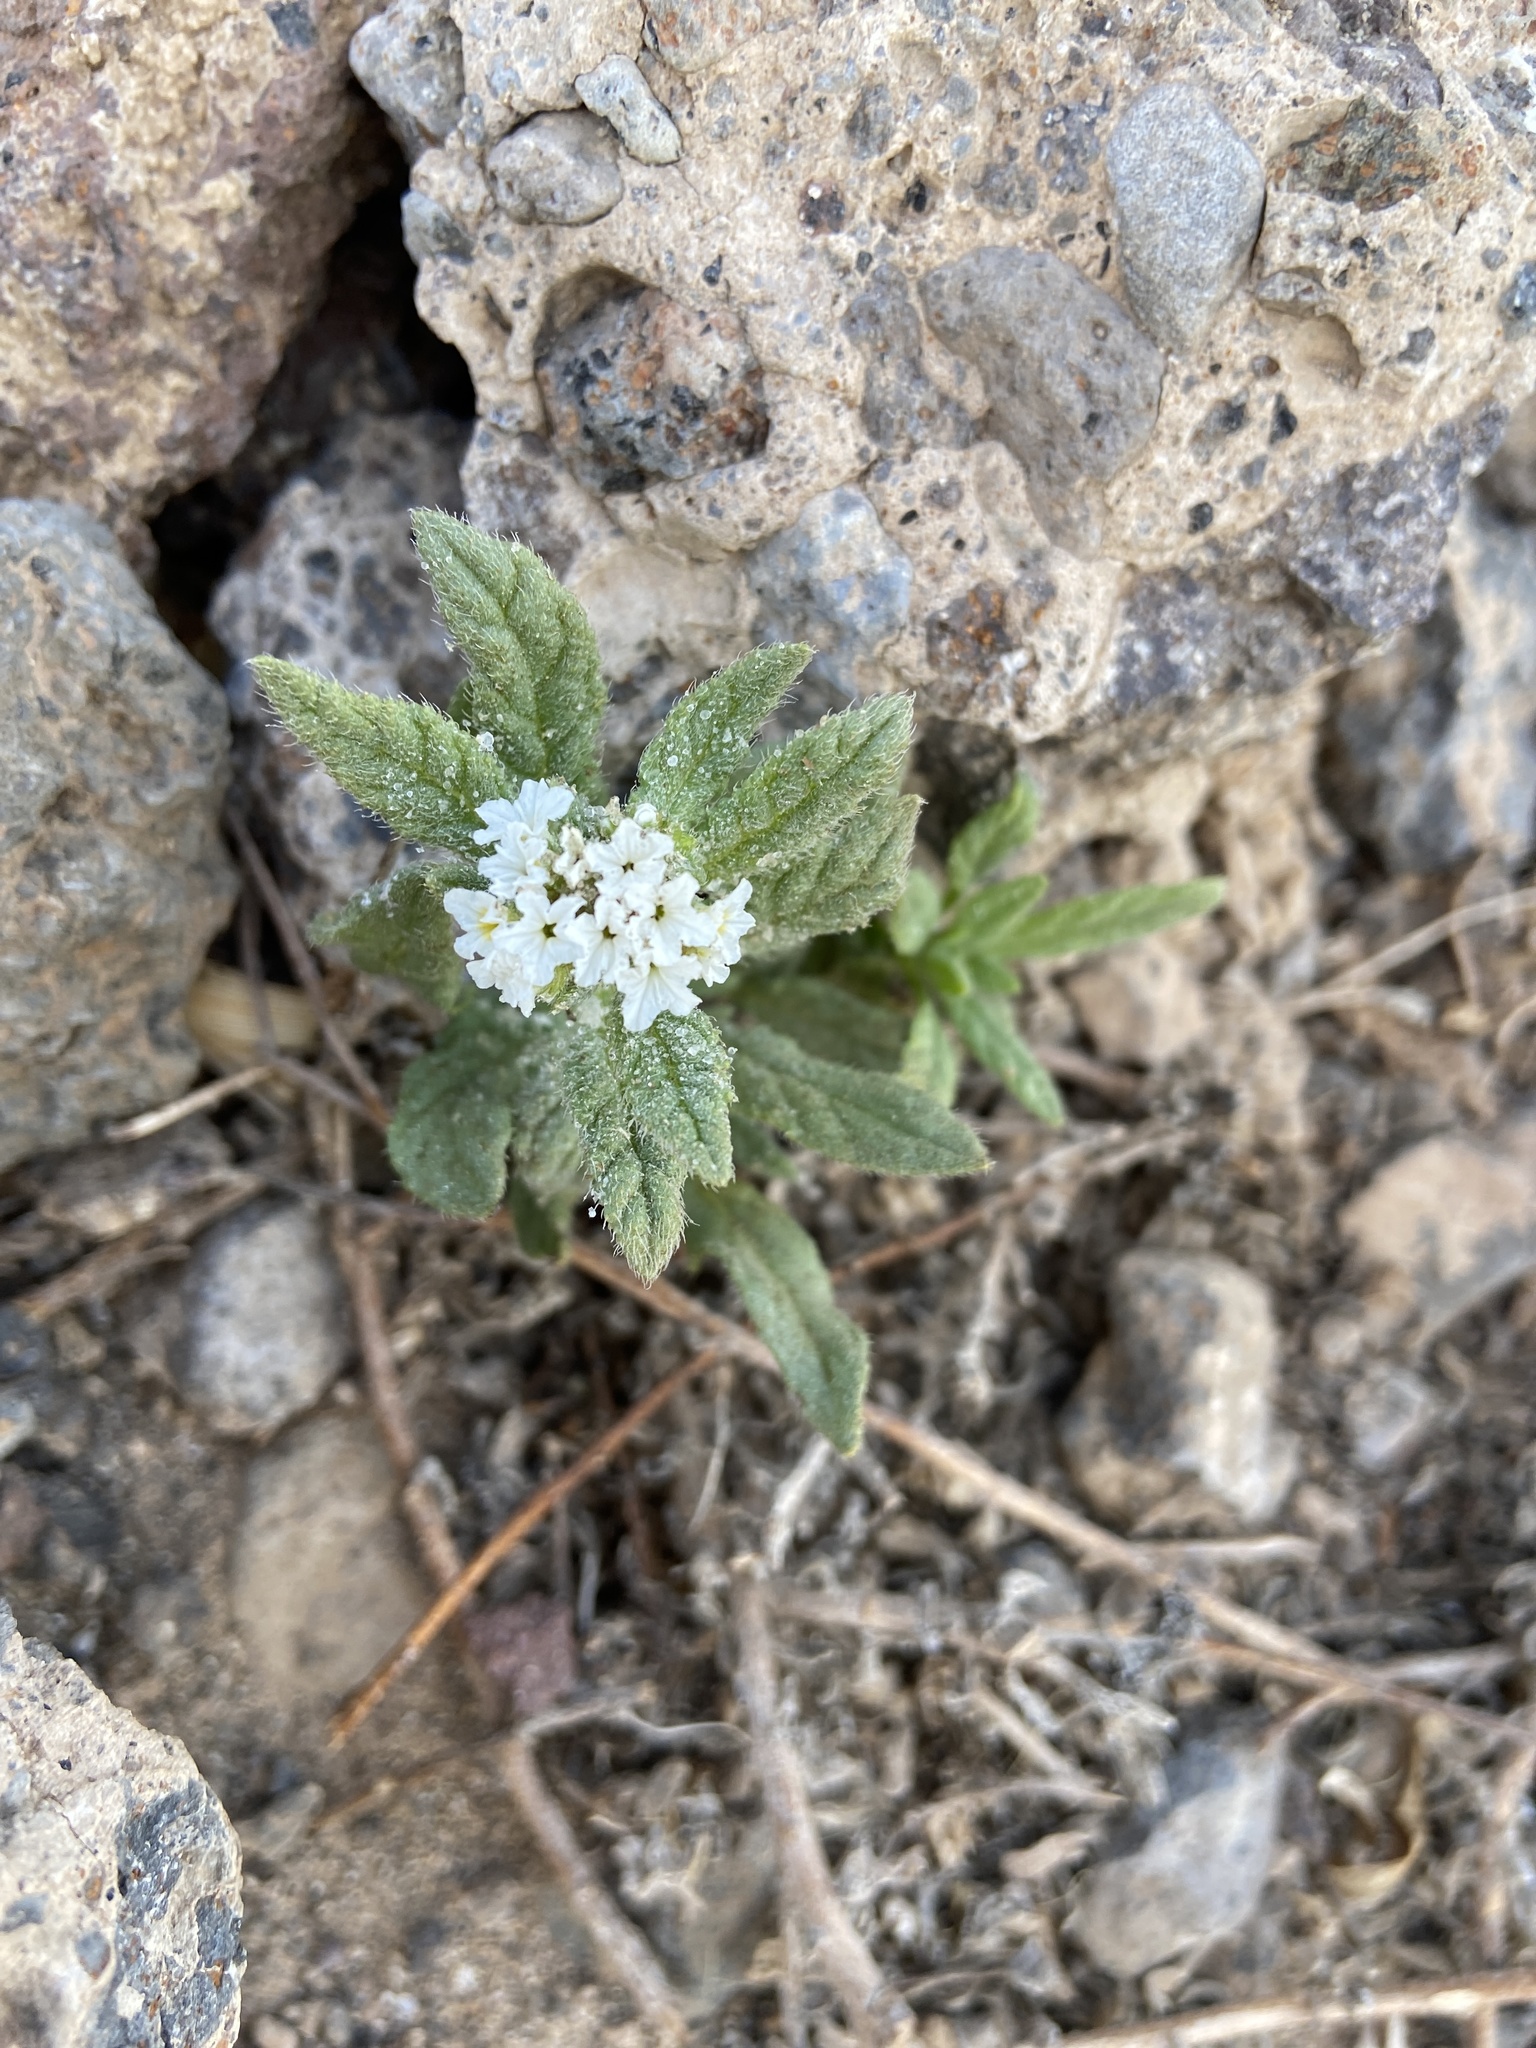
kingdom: Plantae
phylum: Tracheophyta
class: Magnoliopsida
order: Boraginales
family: Heliotropiaceae
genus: Heliotropium
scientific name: Heliotropium ramosissimum
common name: Wavy heliotrope
